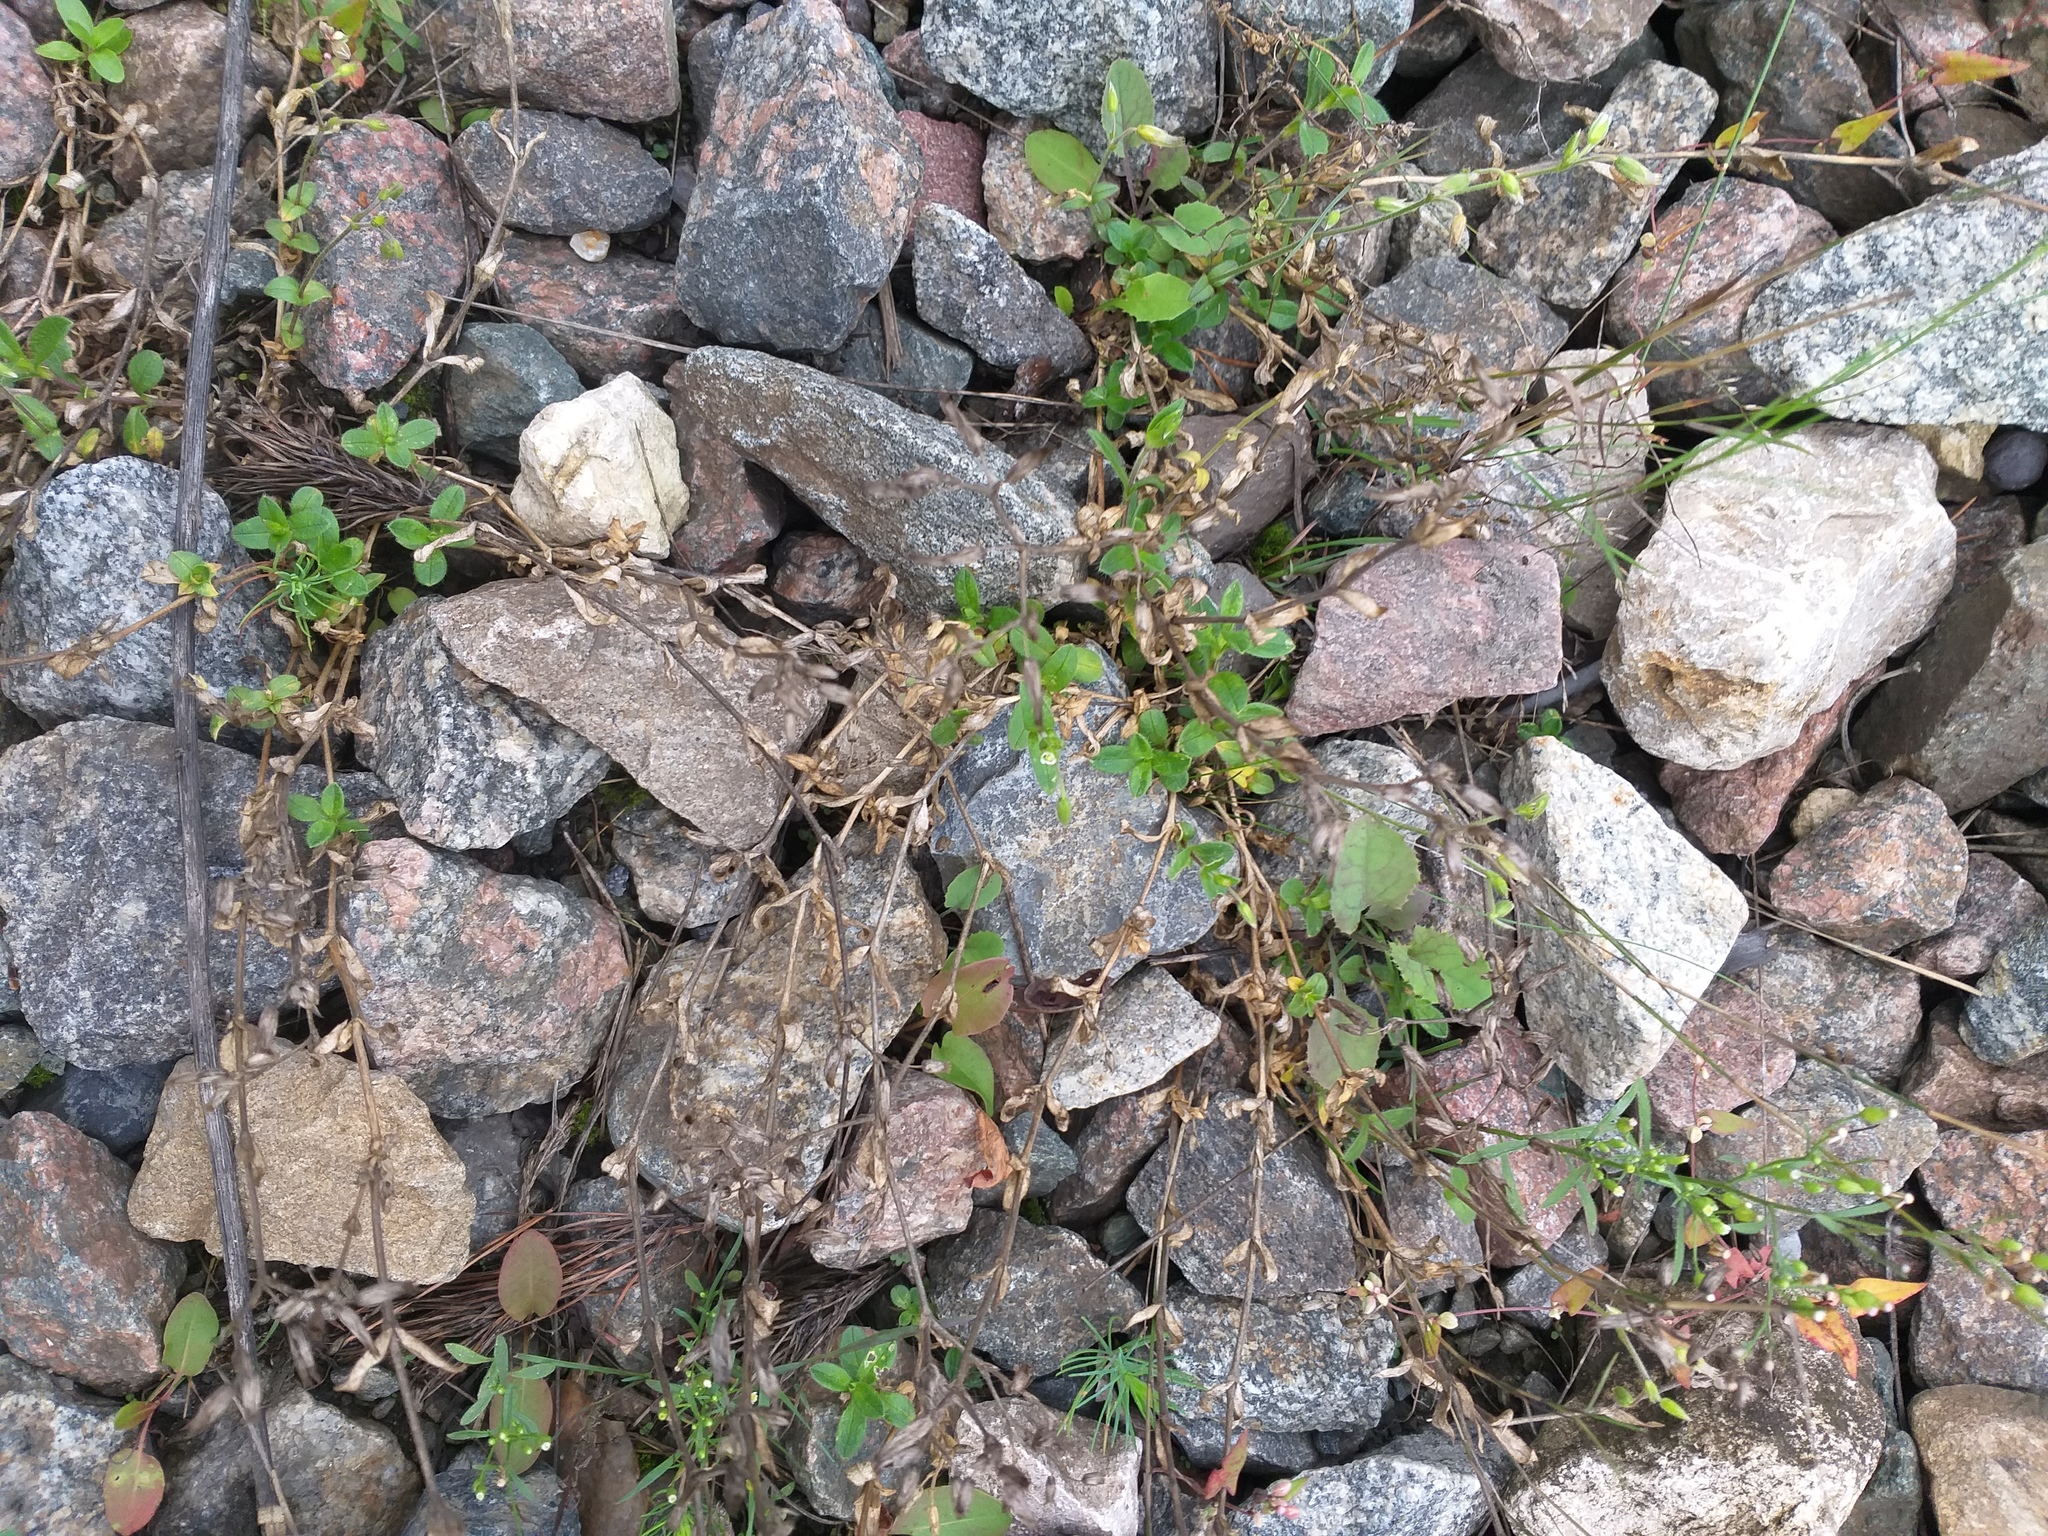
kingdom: Plantae
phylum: Tracheophyta
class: Magnoliopsida
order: Caryophyllales
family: Caryophyllaceae
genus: Cerastium
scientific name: Cerastium holosteoides
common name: Big chickweed
